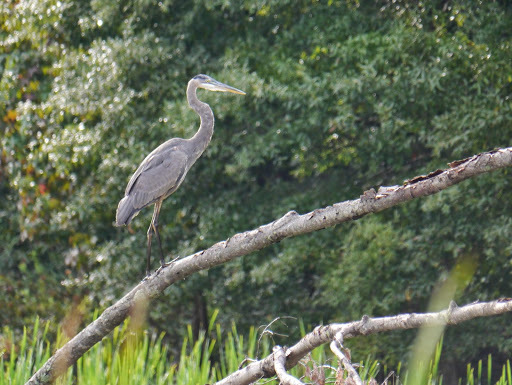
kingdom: Animalia
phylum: Chordata
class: Aves
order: Pelecaniformes
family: Ardeidae
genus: Ardea
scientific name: Ardea herodias
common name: Great blue heron
